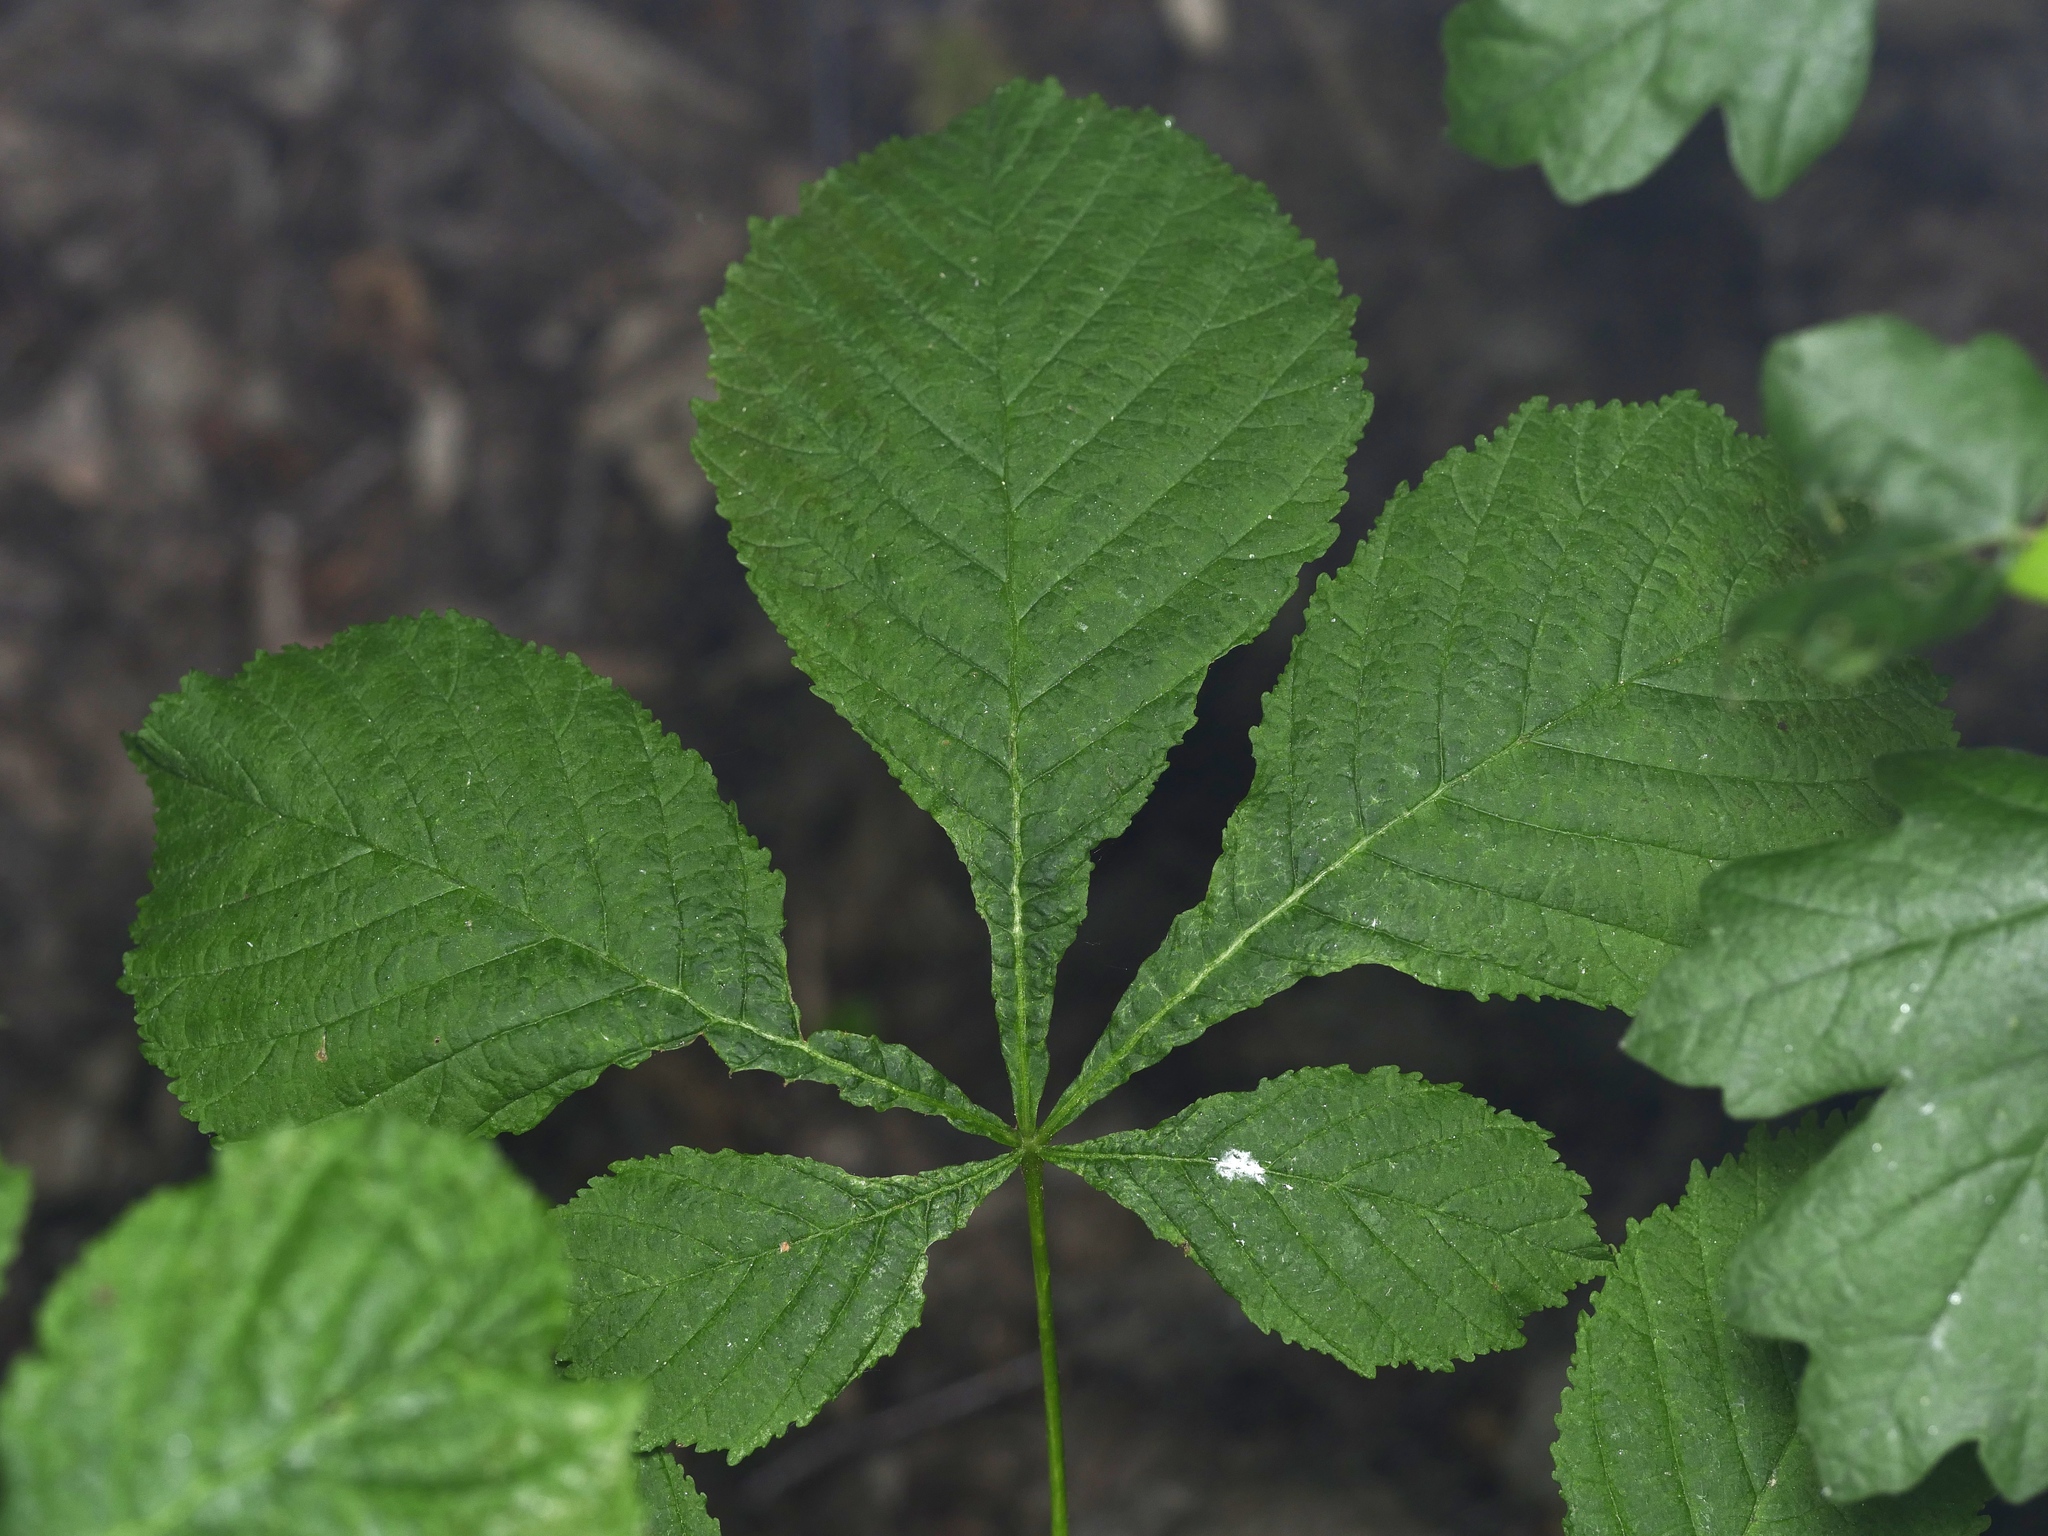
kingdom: Plantae
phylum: Tracheophyta
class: Magnoliopsida
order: Sapindales
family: Sapindaceae
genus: Aesculus
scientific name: Aesculus hippocastanum
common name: Horse-chestnut
